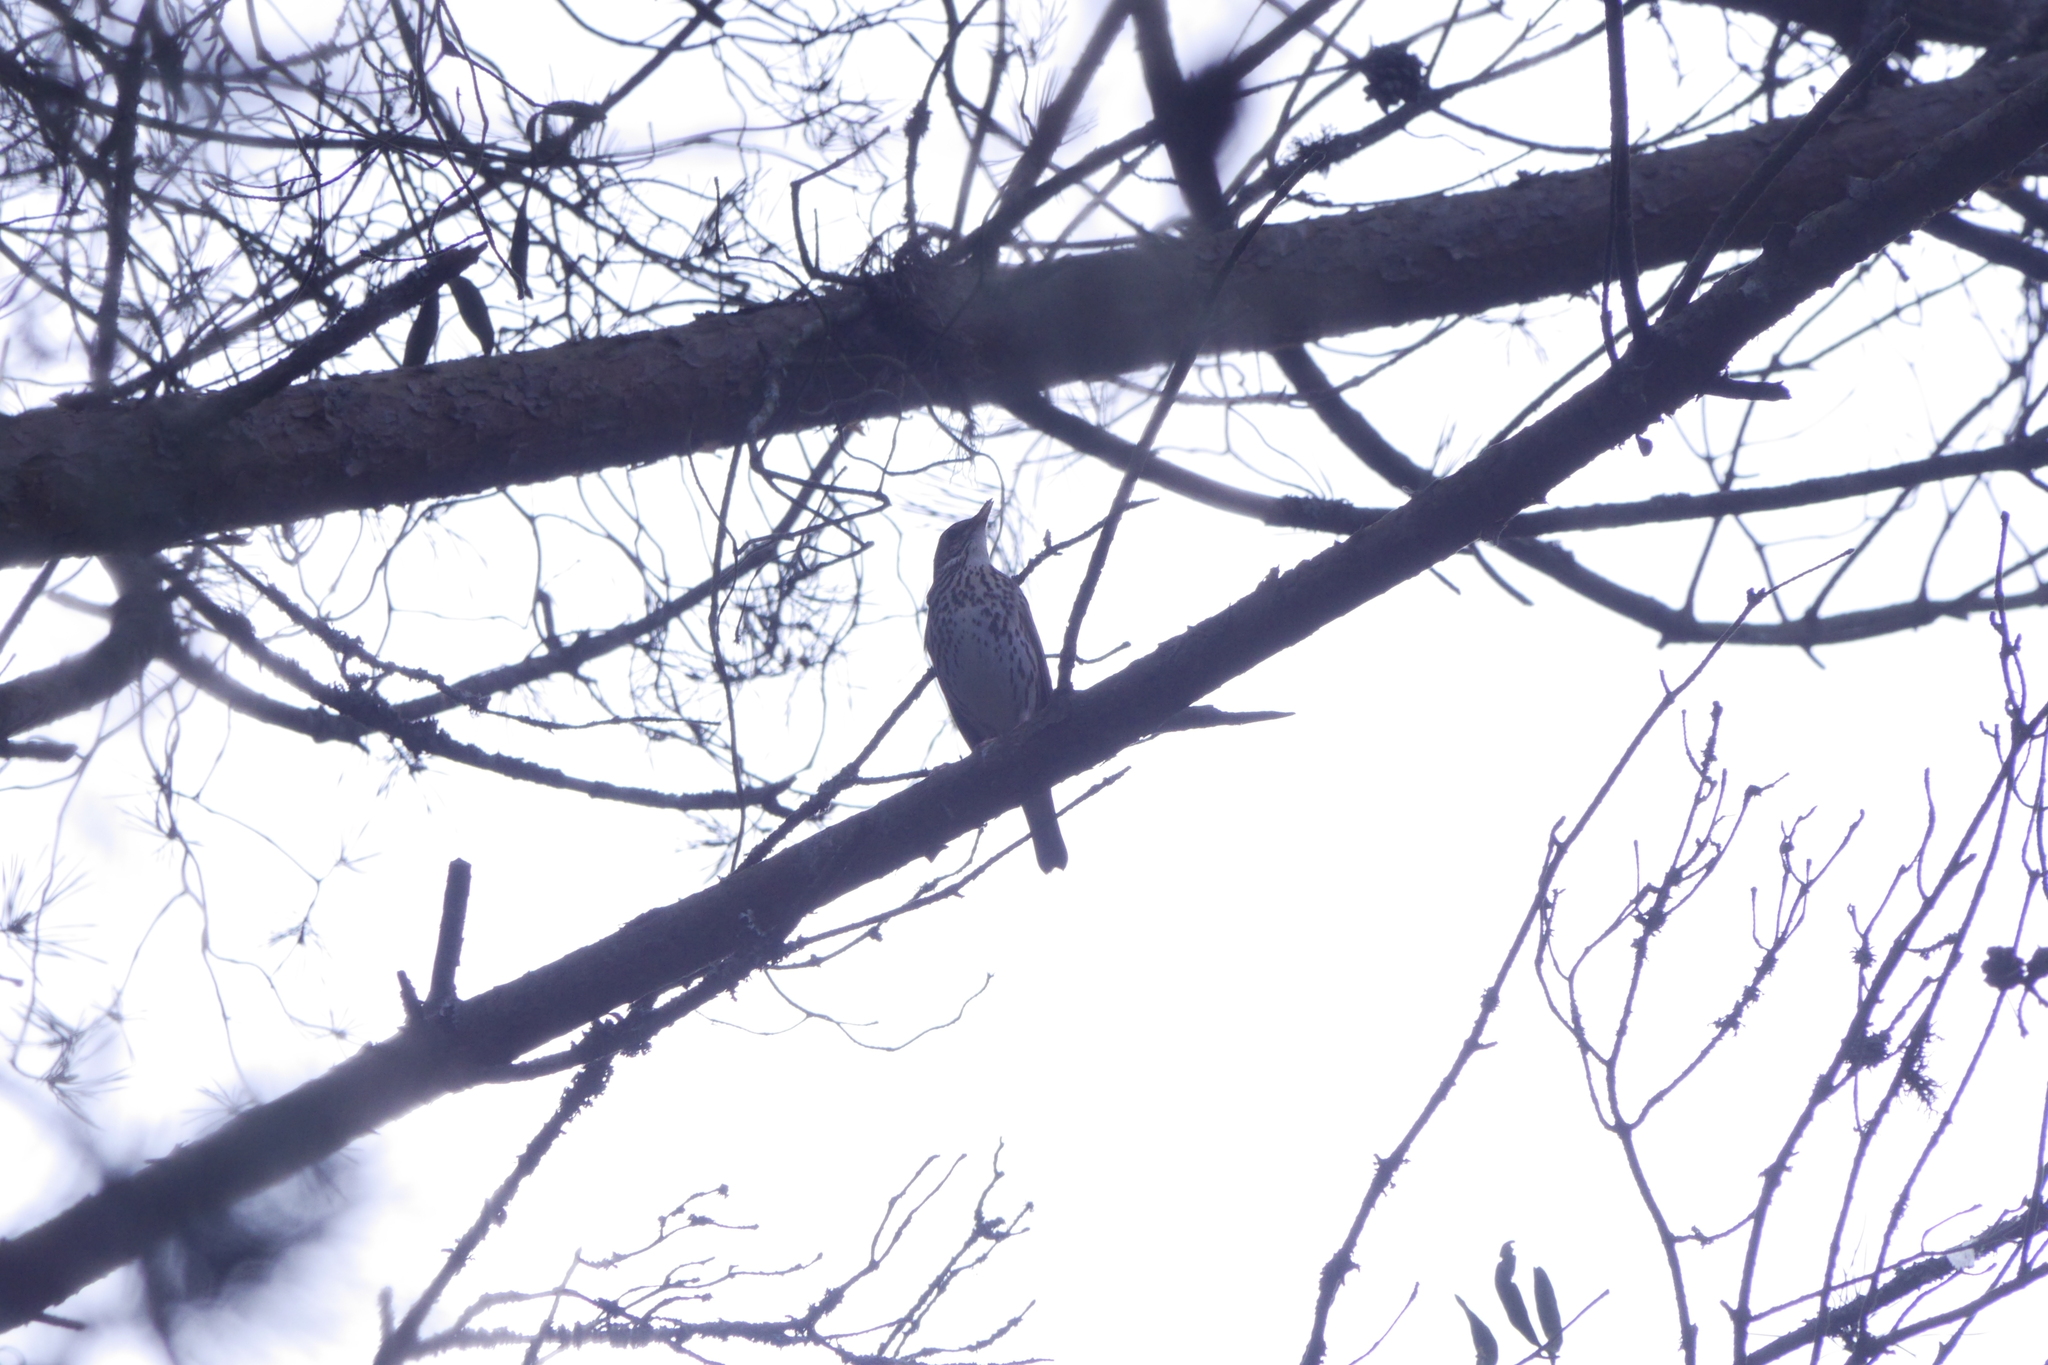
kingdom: Animalia
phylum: Chordata
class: Aves
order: Passeriformes
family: Turdidae
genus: Turdus
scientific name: Turdus philomelos
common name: Song thrush
